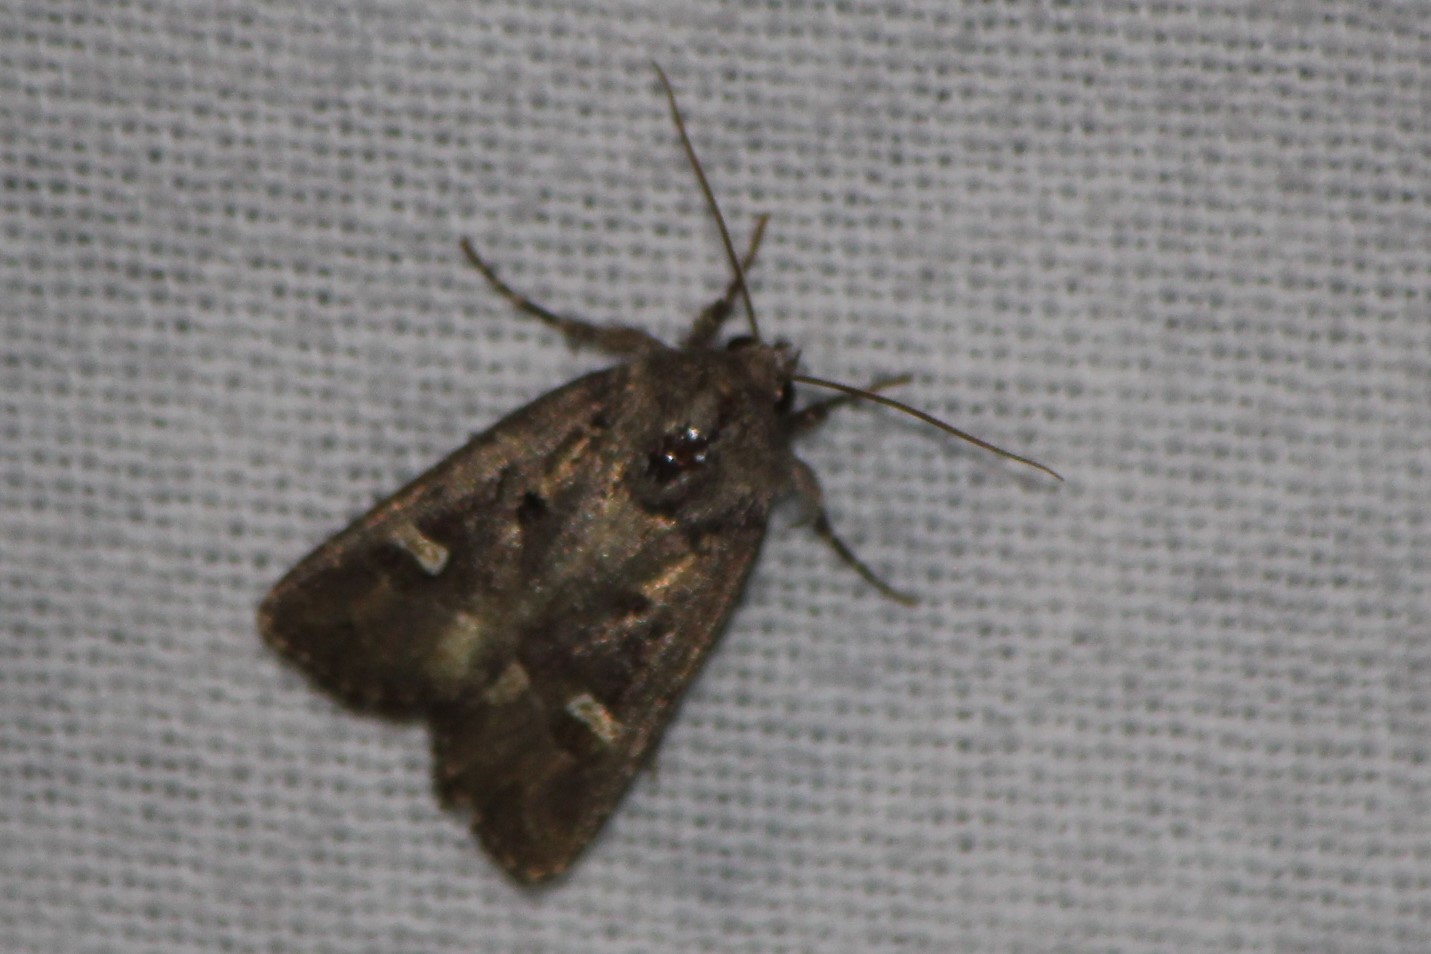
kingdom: Animalia
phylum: Arthropoda
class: Insecta
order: Lepidoptera
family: Noctuidae
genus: Lacinipolia
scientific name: Lacinipolia renigera
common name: Kidney-spotted minor
